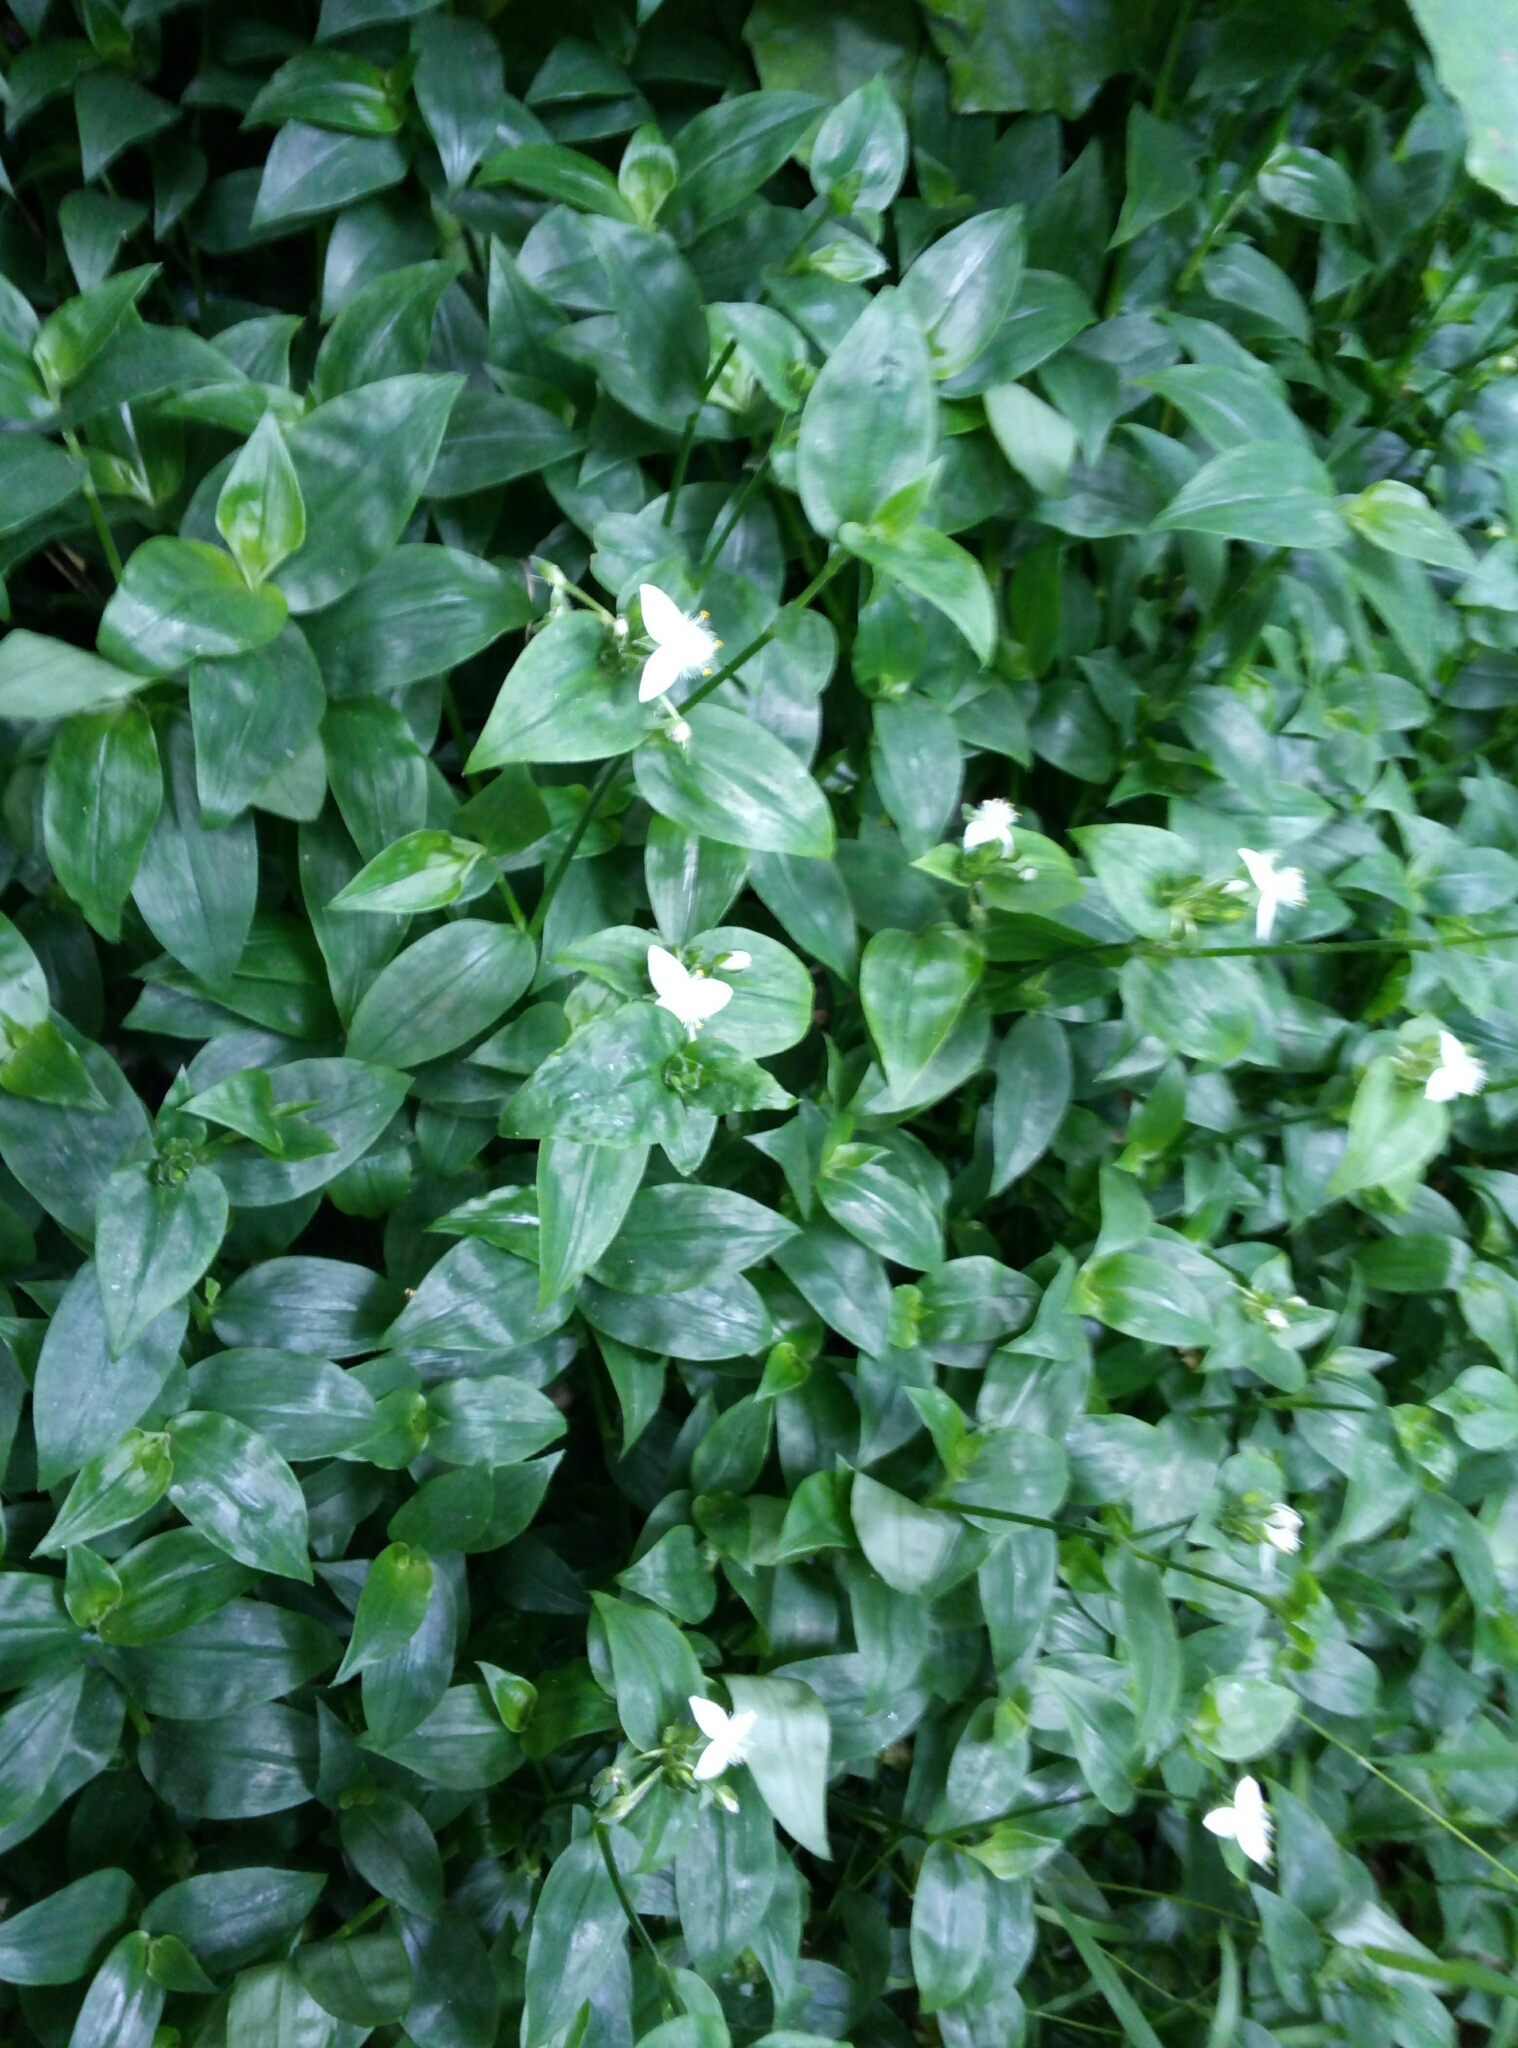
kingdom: Plantae
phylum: Tracheophyta
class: Liliopsida
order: Commelinales
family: Commelinaceae
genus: Tradescantia
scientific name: Tradescantia fluminensis
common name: Wandering-jew
